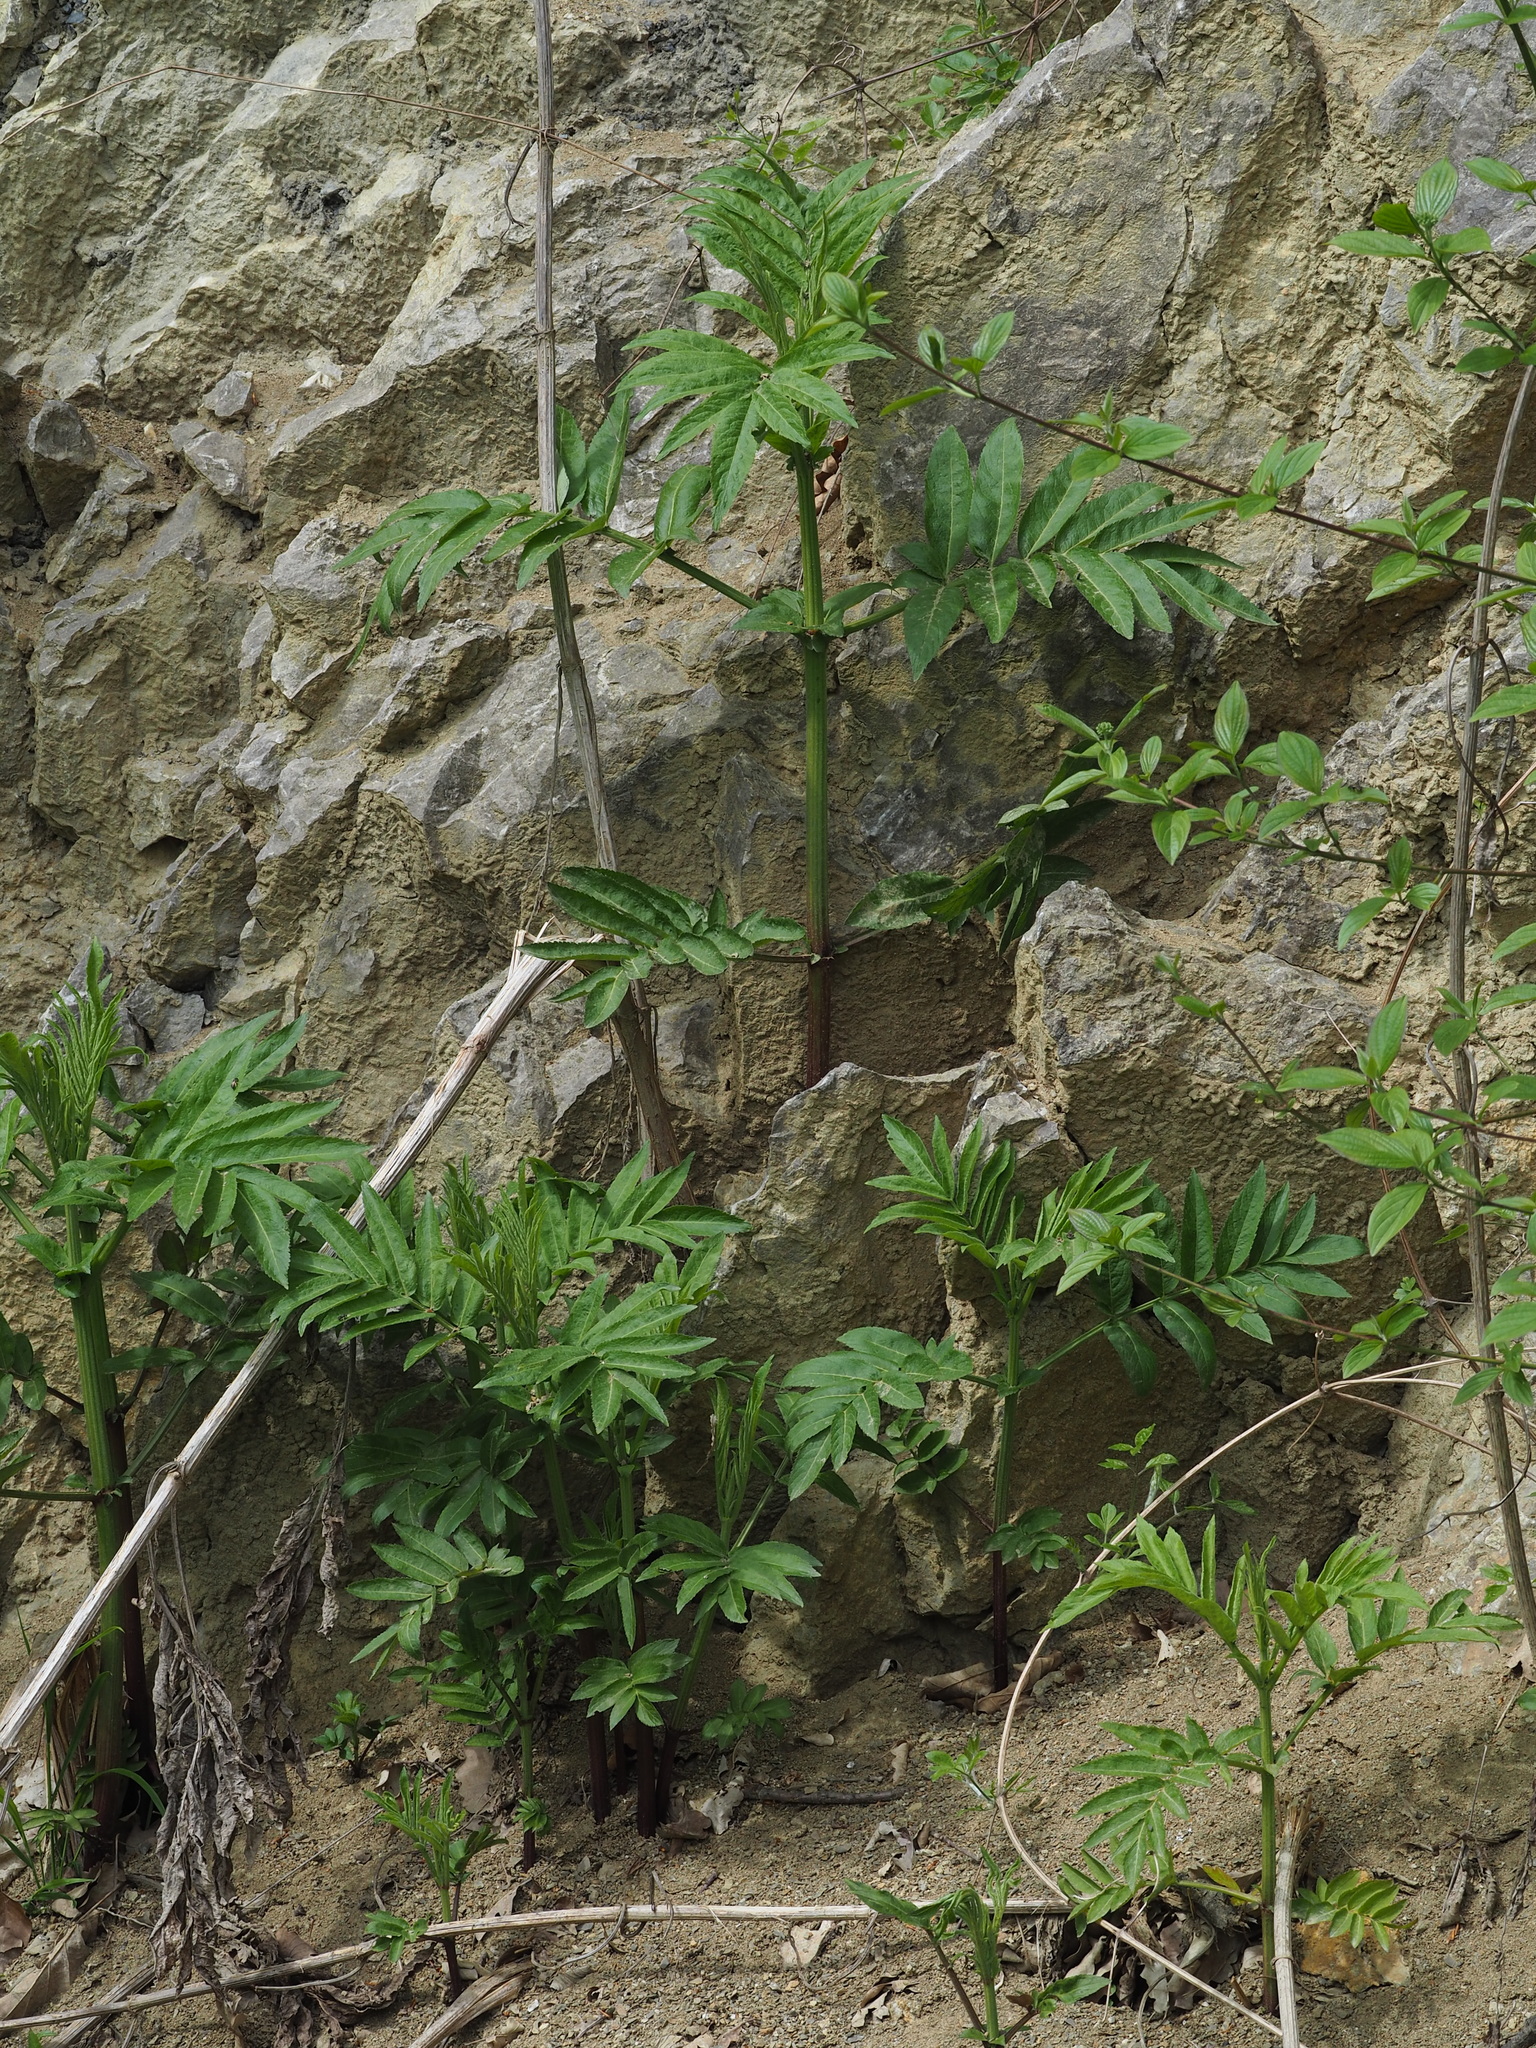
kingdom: Plantae
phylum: Tracheophyta
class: Magnoliopsida
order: Dipsacales
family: Viburnaceae
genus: Sambucus
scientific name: Sambucus ebulus
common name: Dwarf elder
